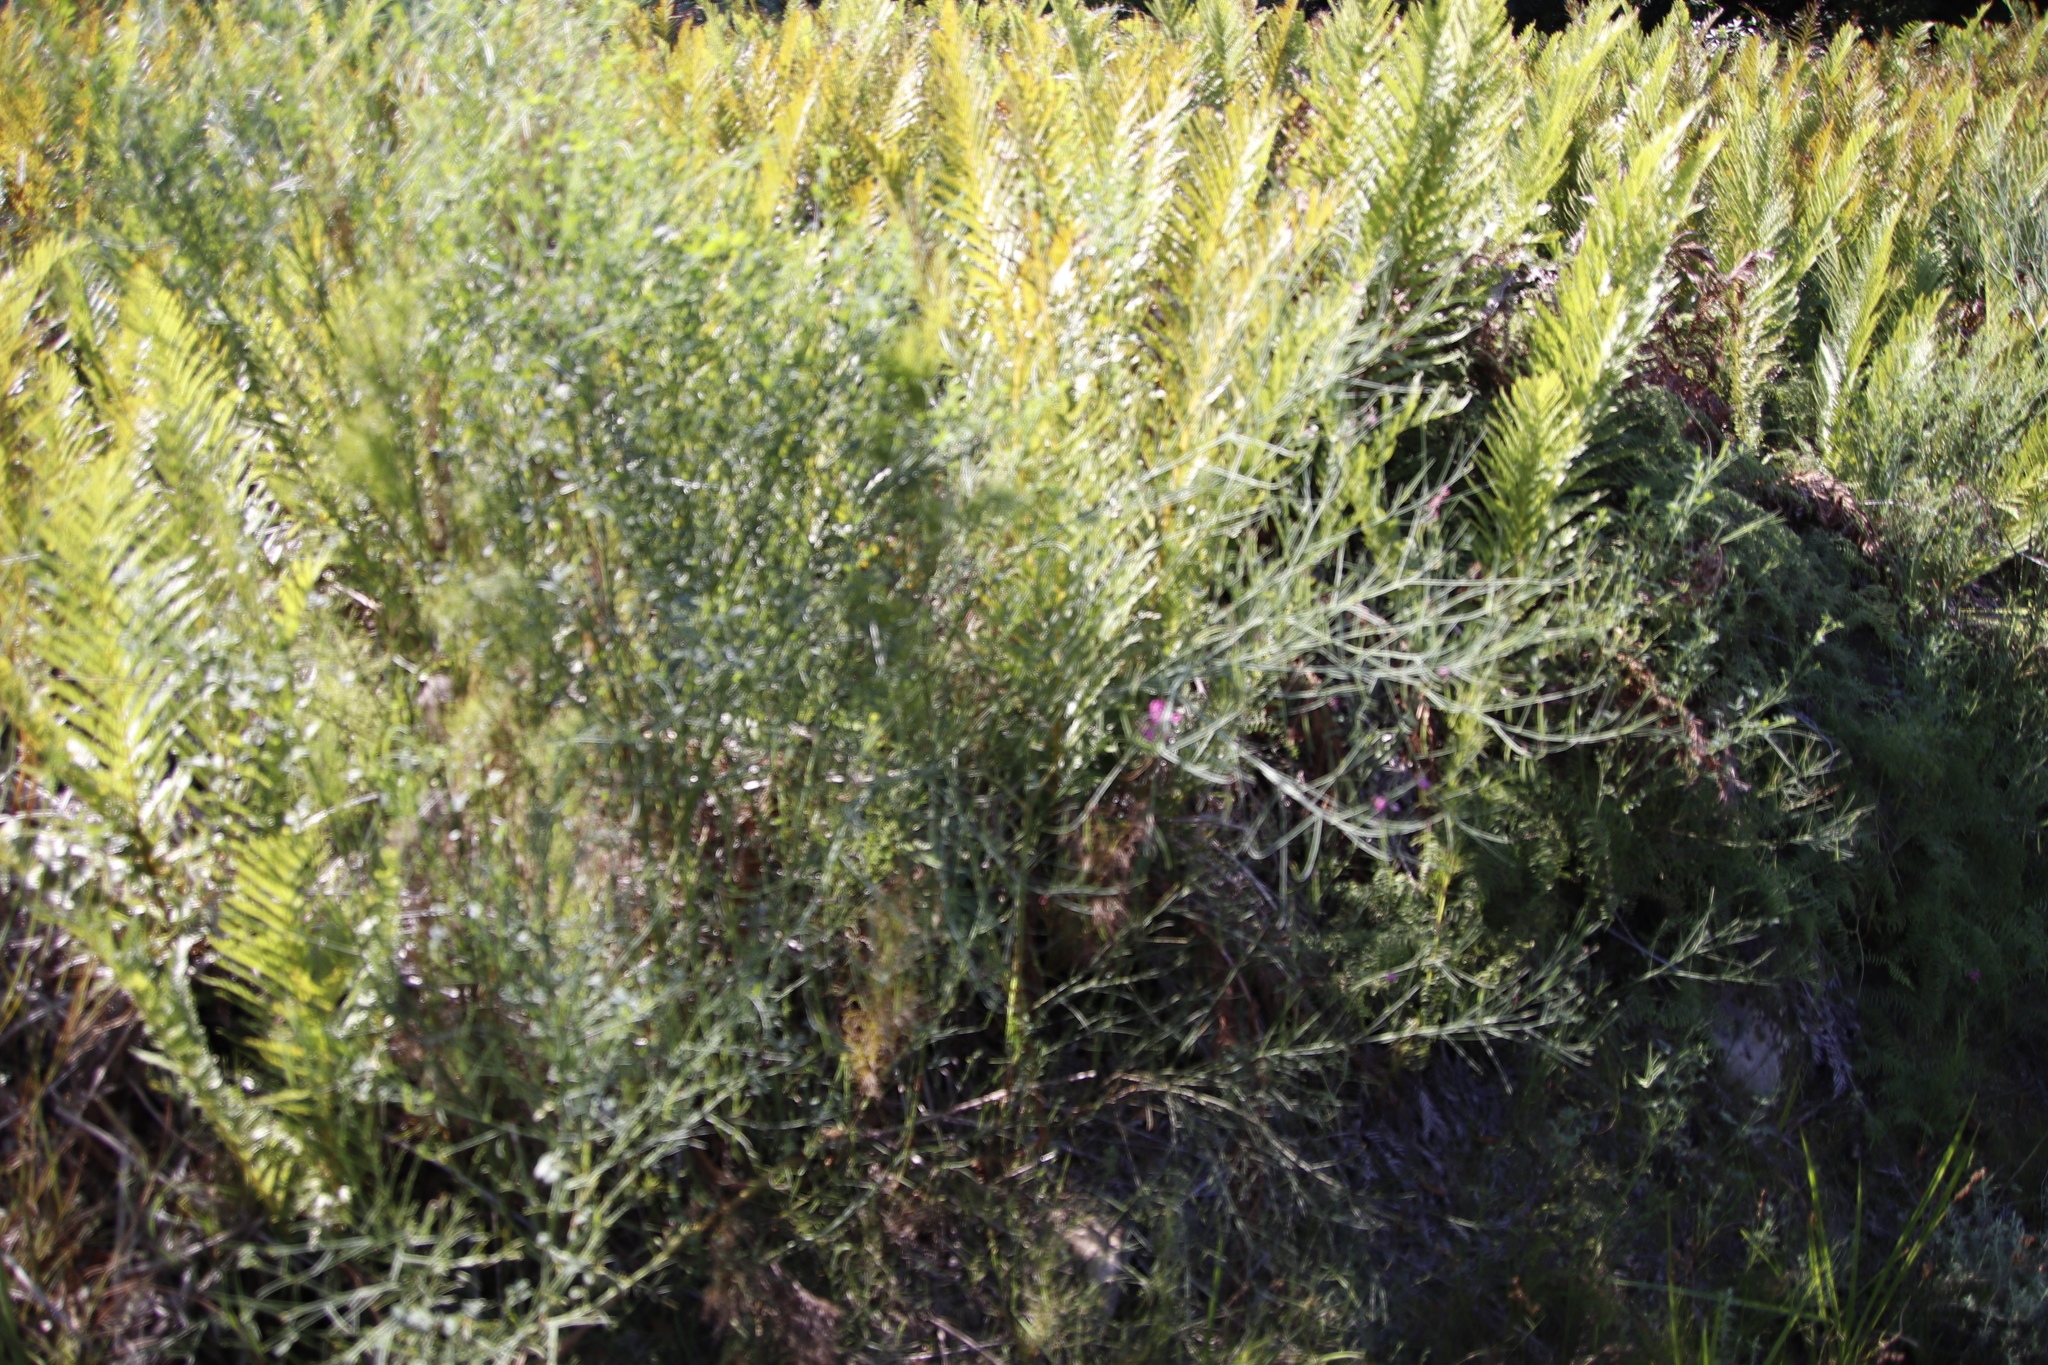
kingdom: Plantae
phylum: Tracheophyta
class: Magnoliopsida
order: Fabales
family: Fabaceae
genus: Indigofera
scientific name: Indigofera filifolia
